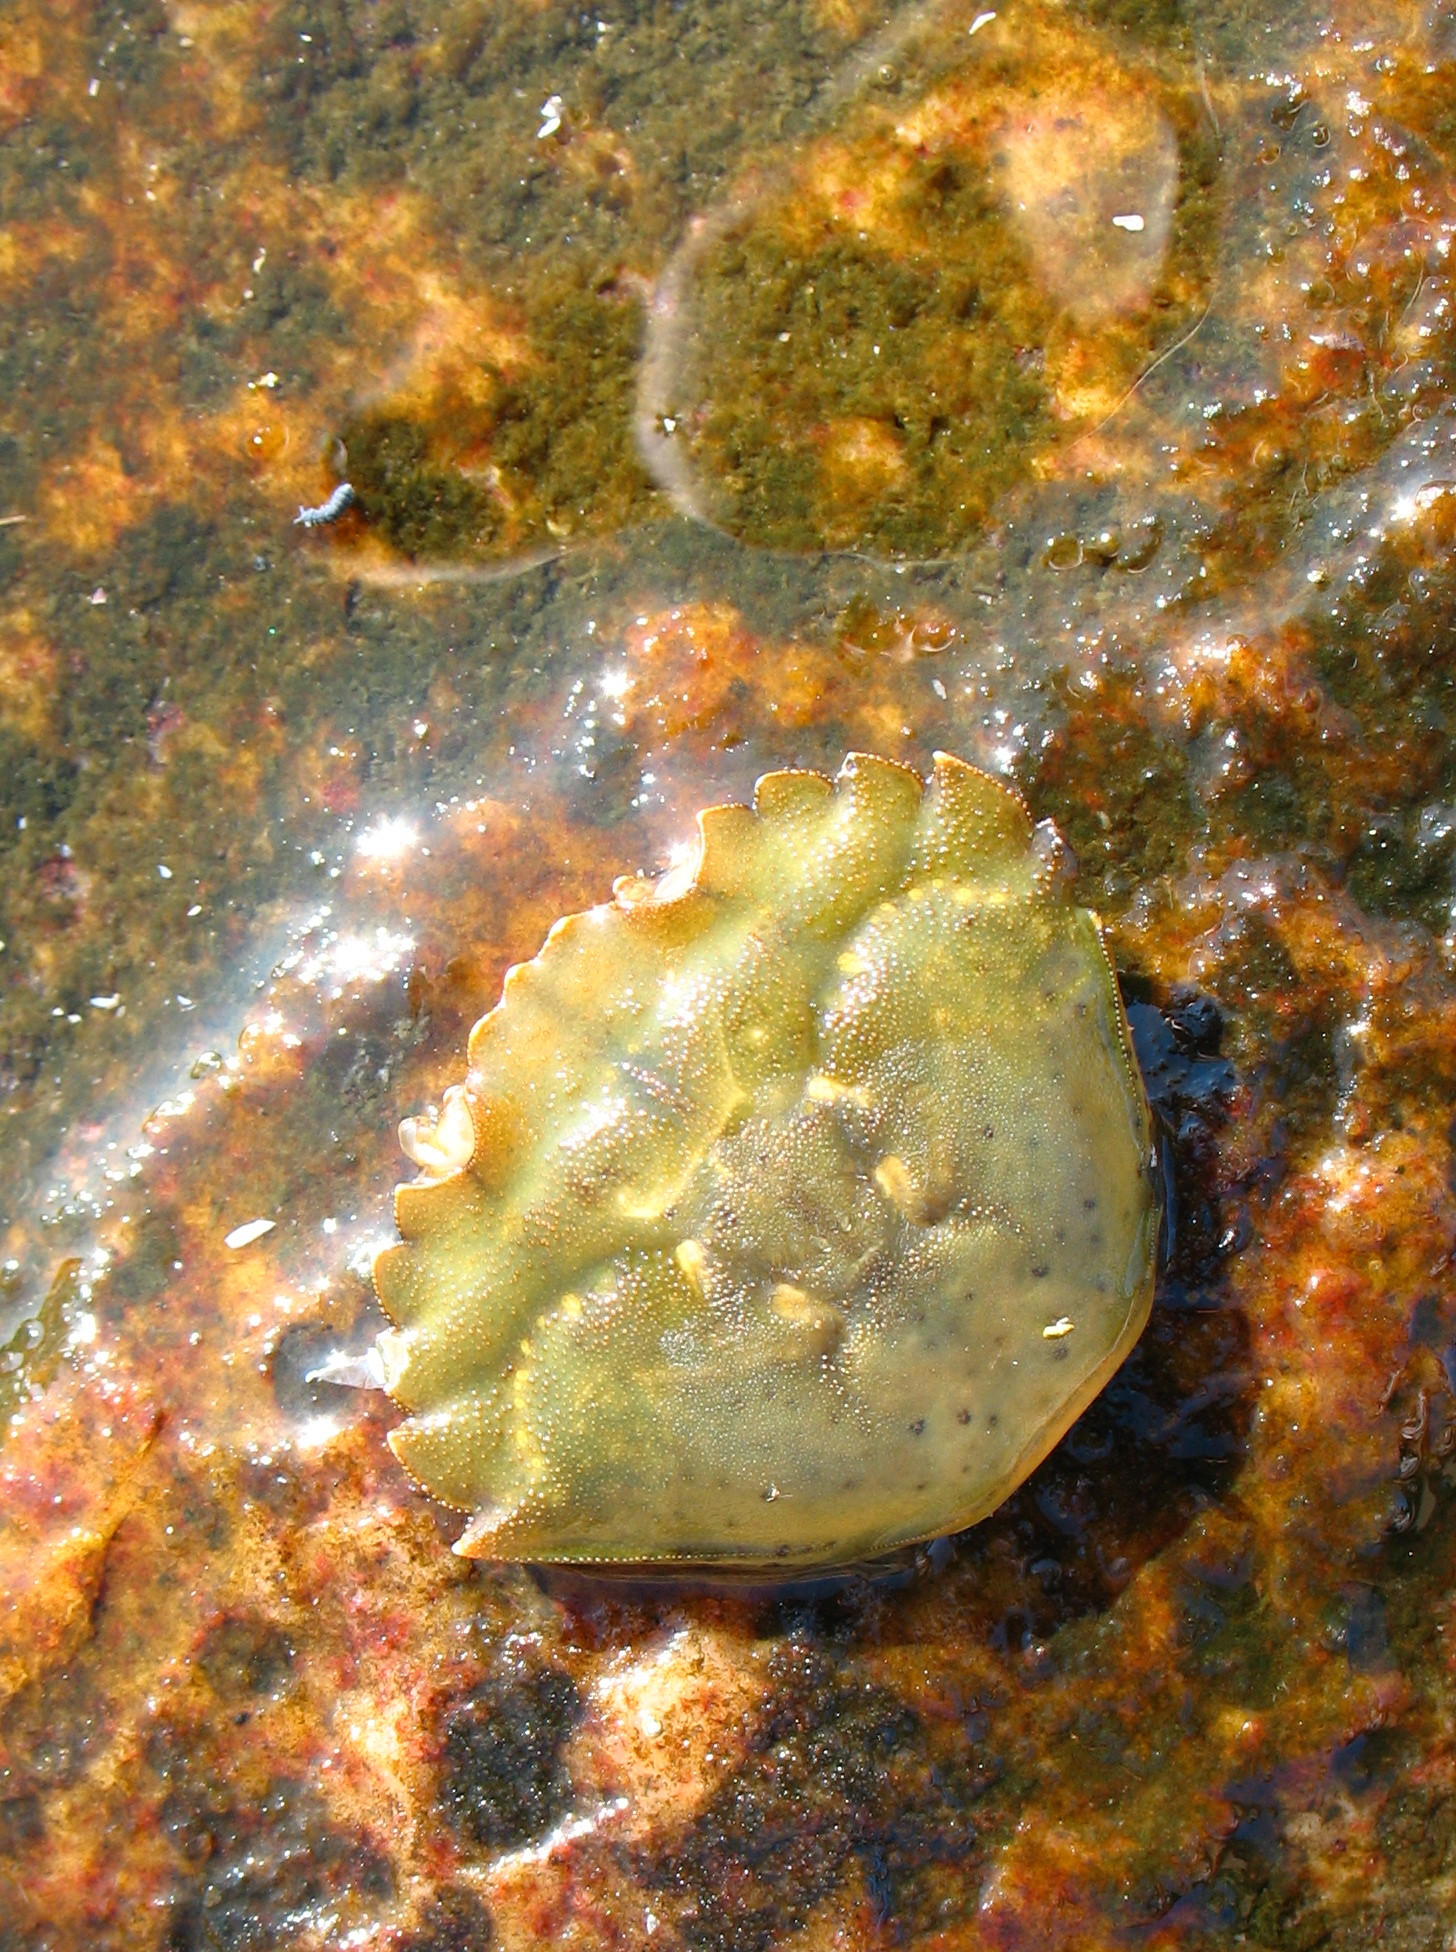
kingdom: Animalia
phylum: Arthropoda
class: Malacostraca
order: Decapoda
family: Carcinidae
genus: Carcinus
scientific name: Carcinus maenas
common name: European green crab
